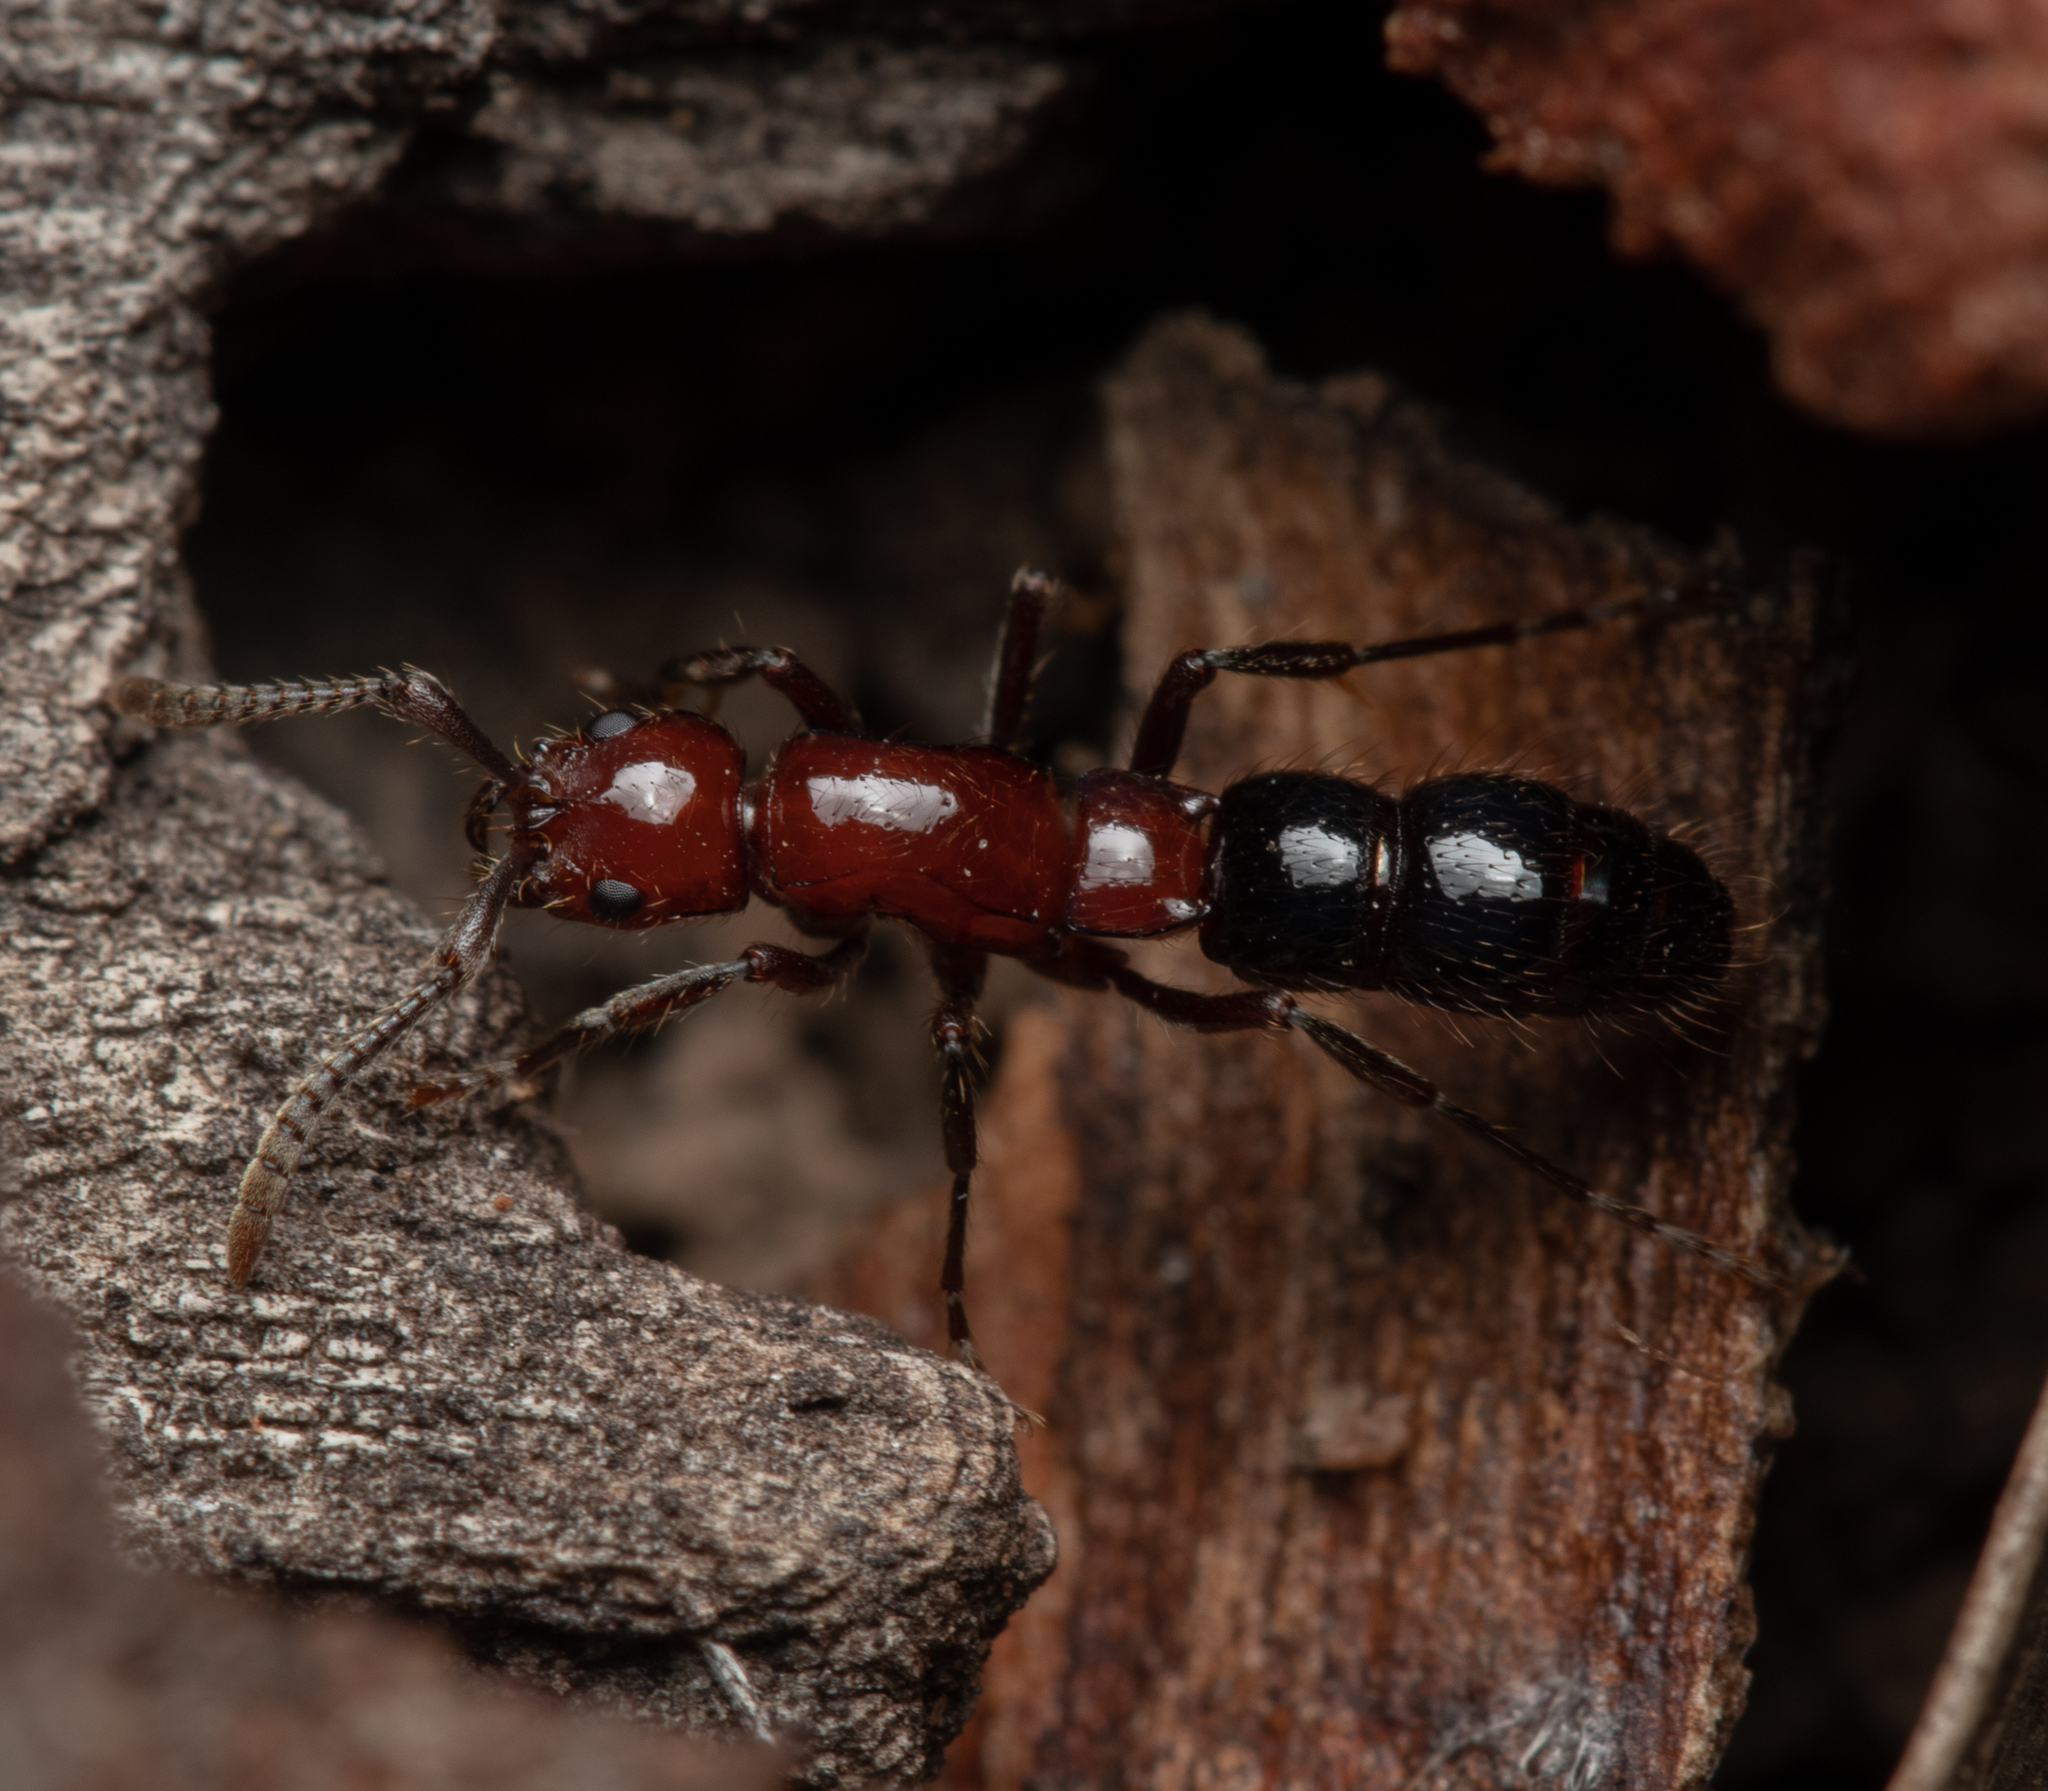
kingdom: Animalia
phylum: Arthropoda
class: Insecta
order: Hymenoptera
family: Formicidae
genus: Lioponera
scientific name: Lioponera
